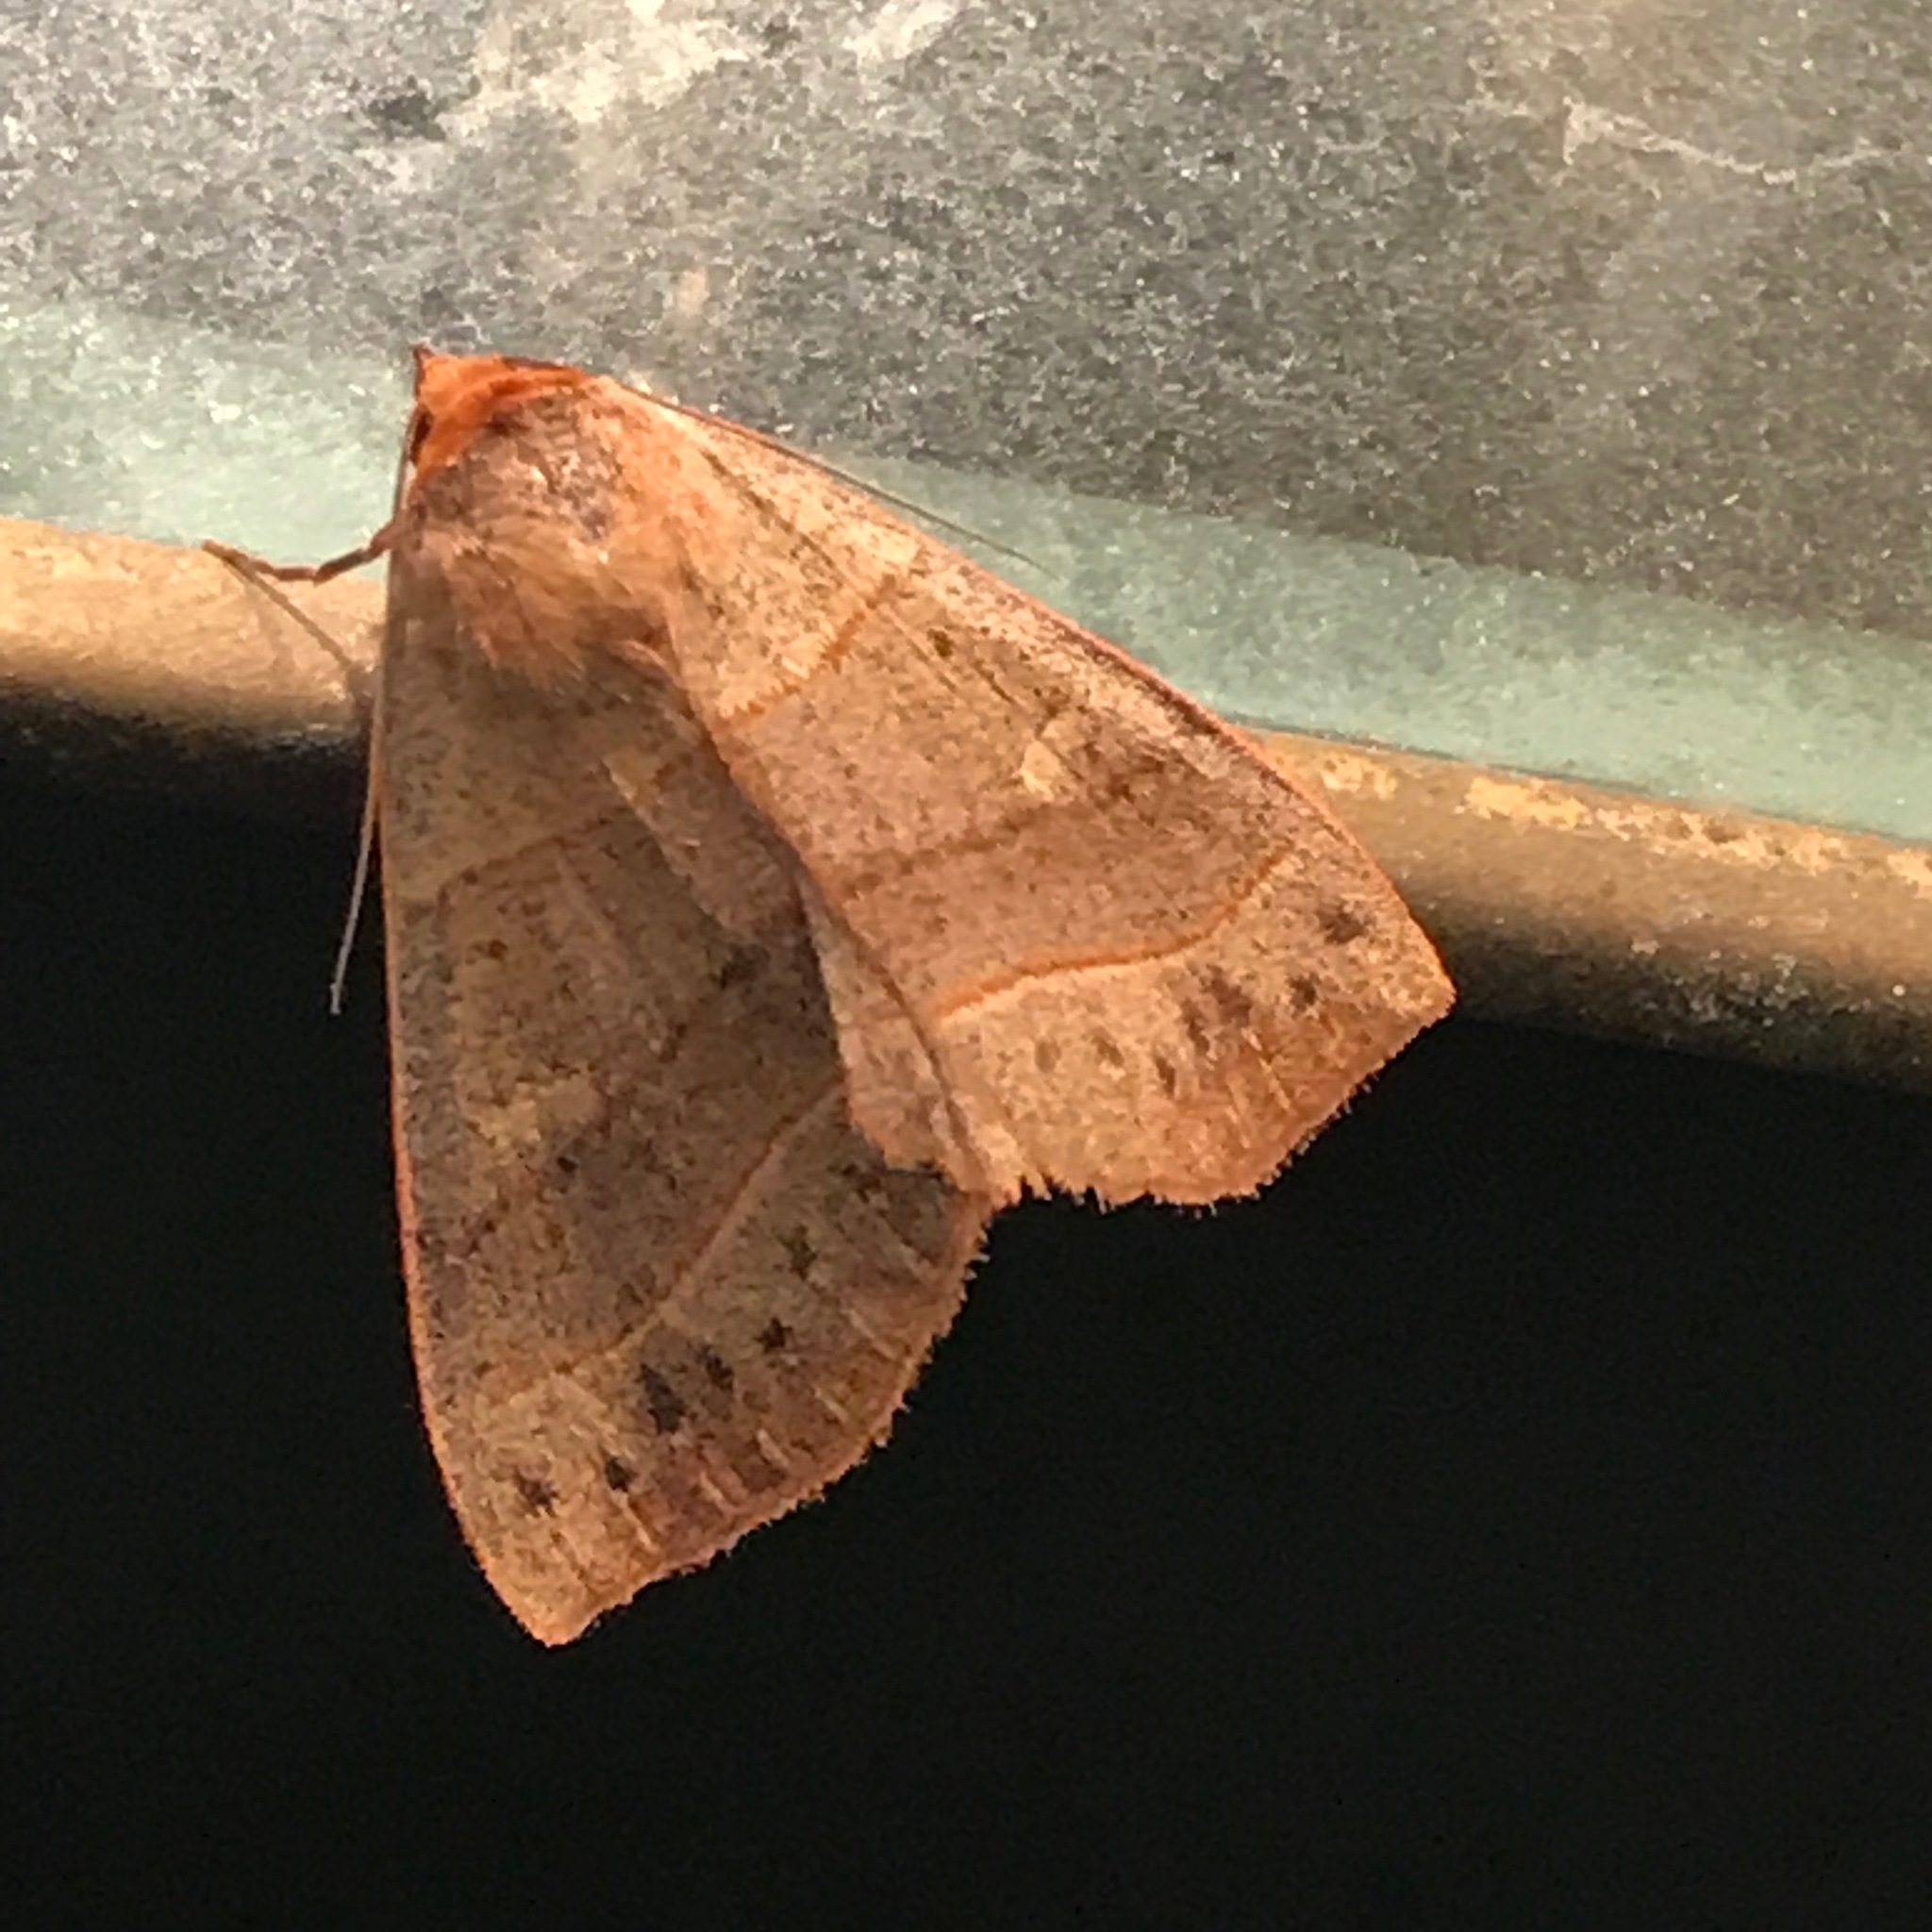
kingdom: Animalia
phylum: Arthropoda
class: Insecta
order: Lepidoptera
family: Erebidae
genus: Panopoda
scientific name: Panopoda rufimargo
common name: Red-lined panopoda moth
